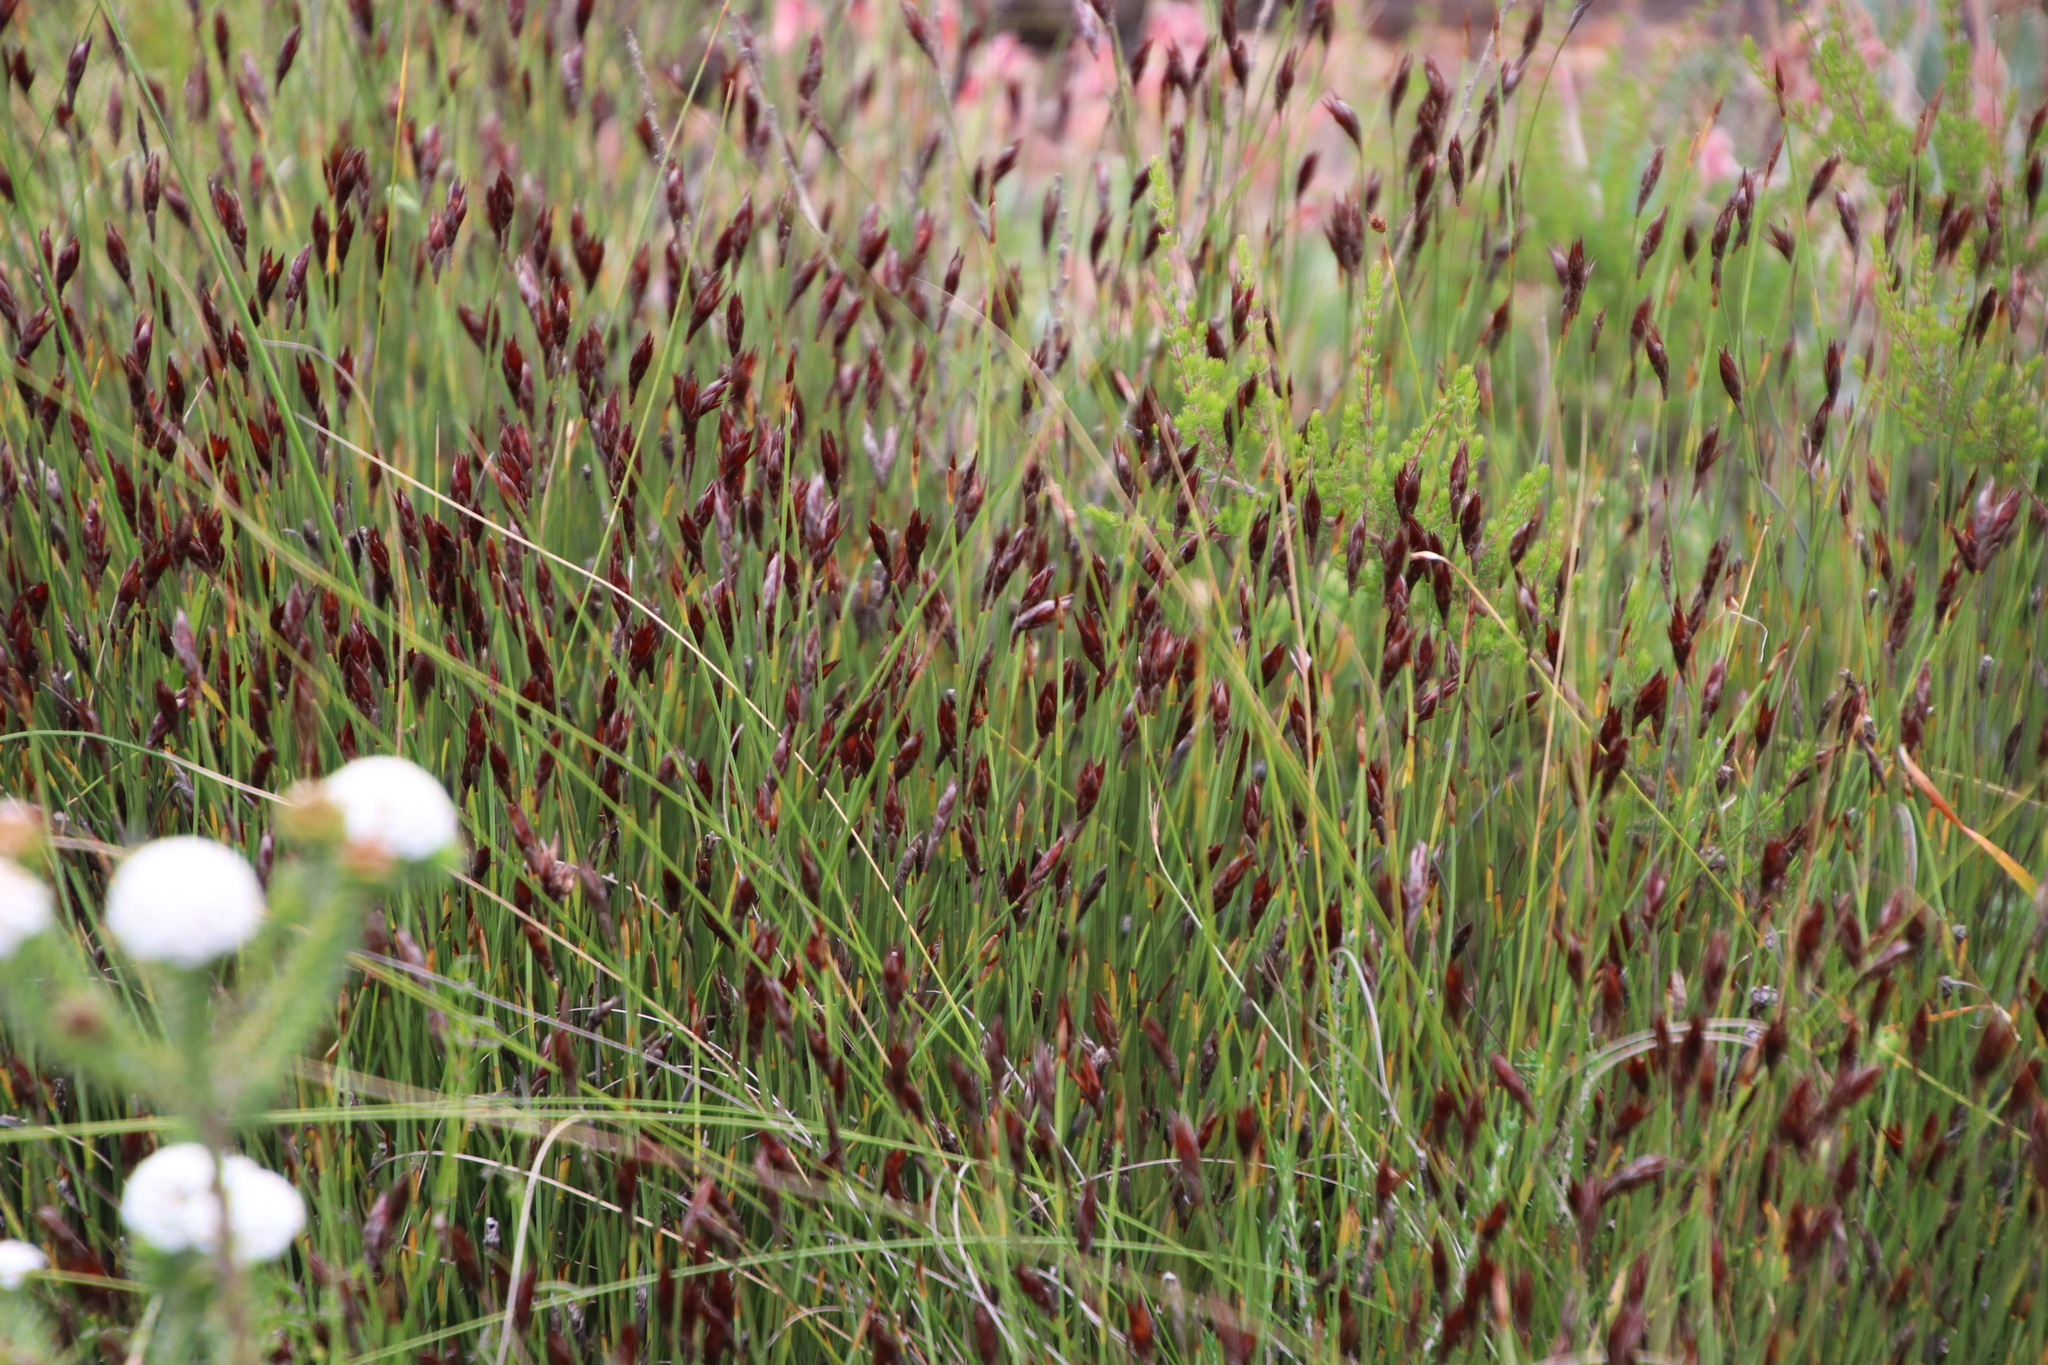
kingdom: Plantae
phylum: Tracheophyta
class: Liliopsida
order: Poales
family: Restionaceae
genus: Hypodiscus
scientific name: Hypodiscus striatus
